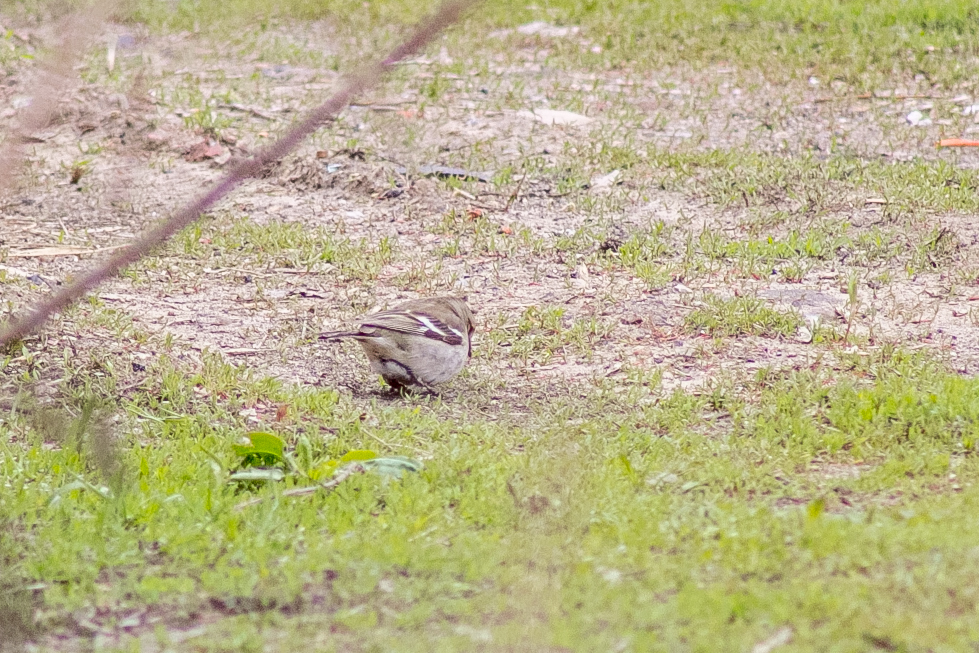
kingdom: Animalia
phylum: Chordata
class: Aves
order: Passeriformes
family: Fringillidae
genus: Fringilla
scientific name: Fringilla coelebs
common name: Common chaffinch
